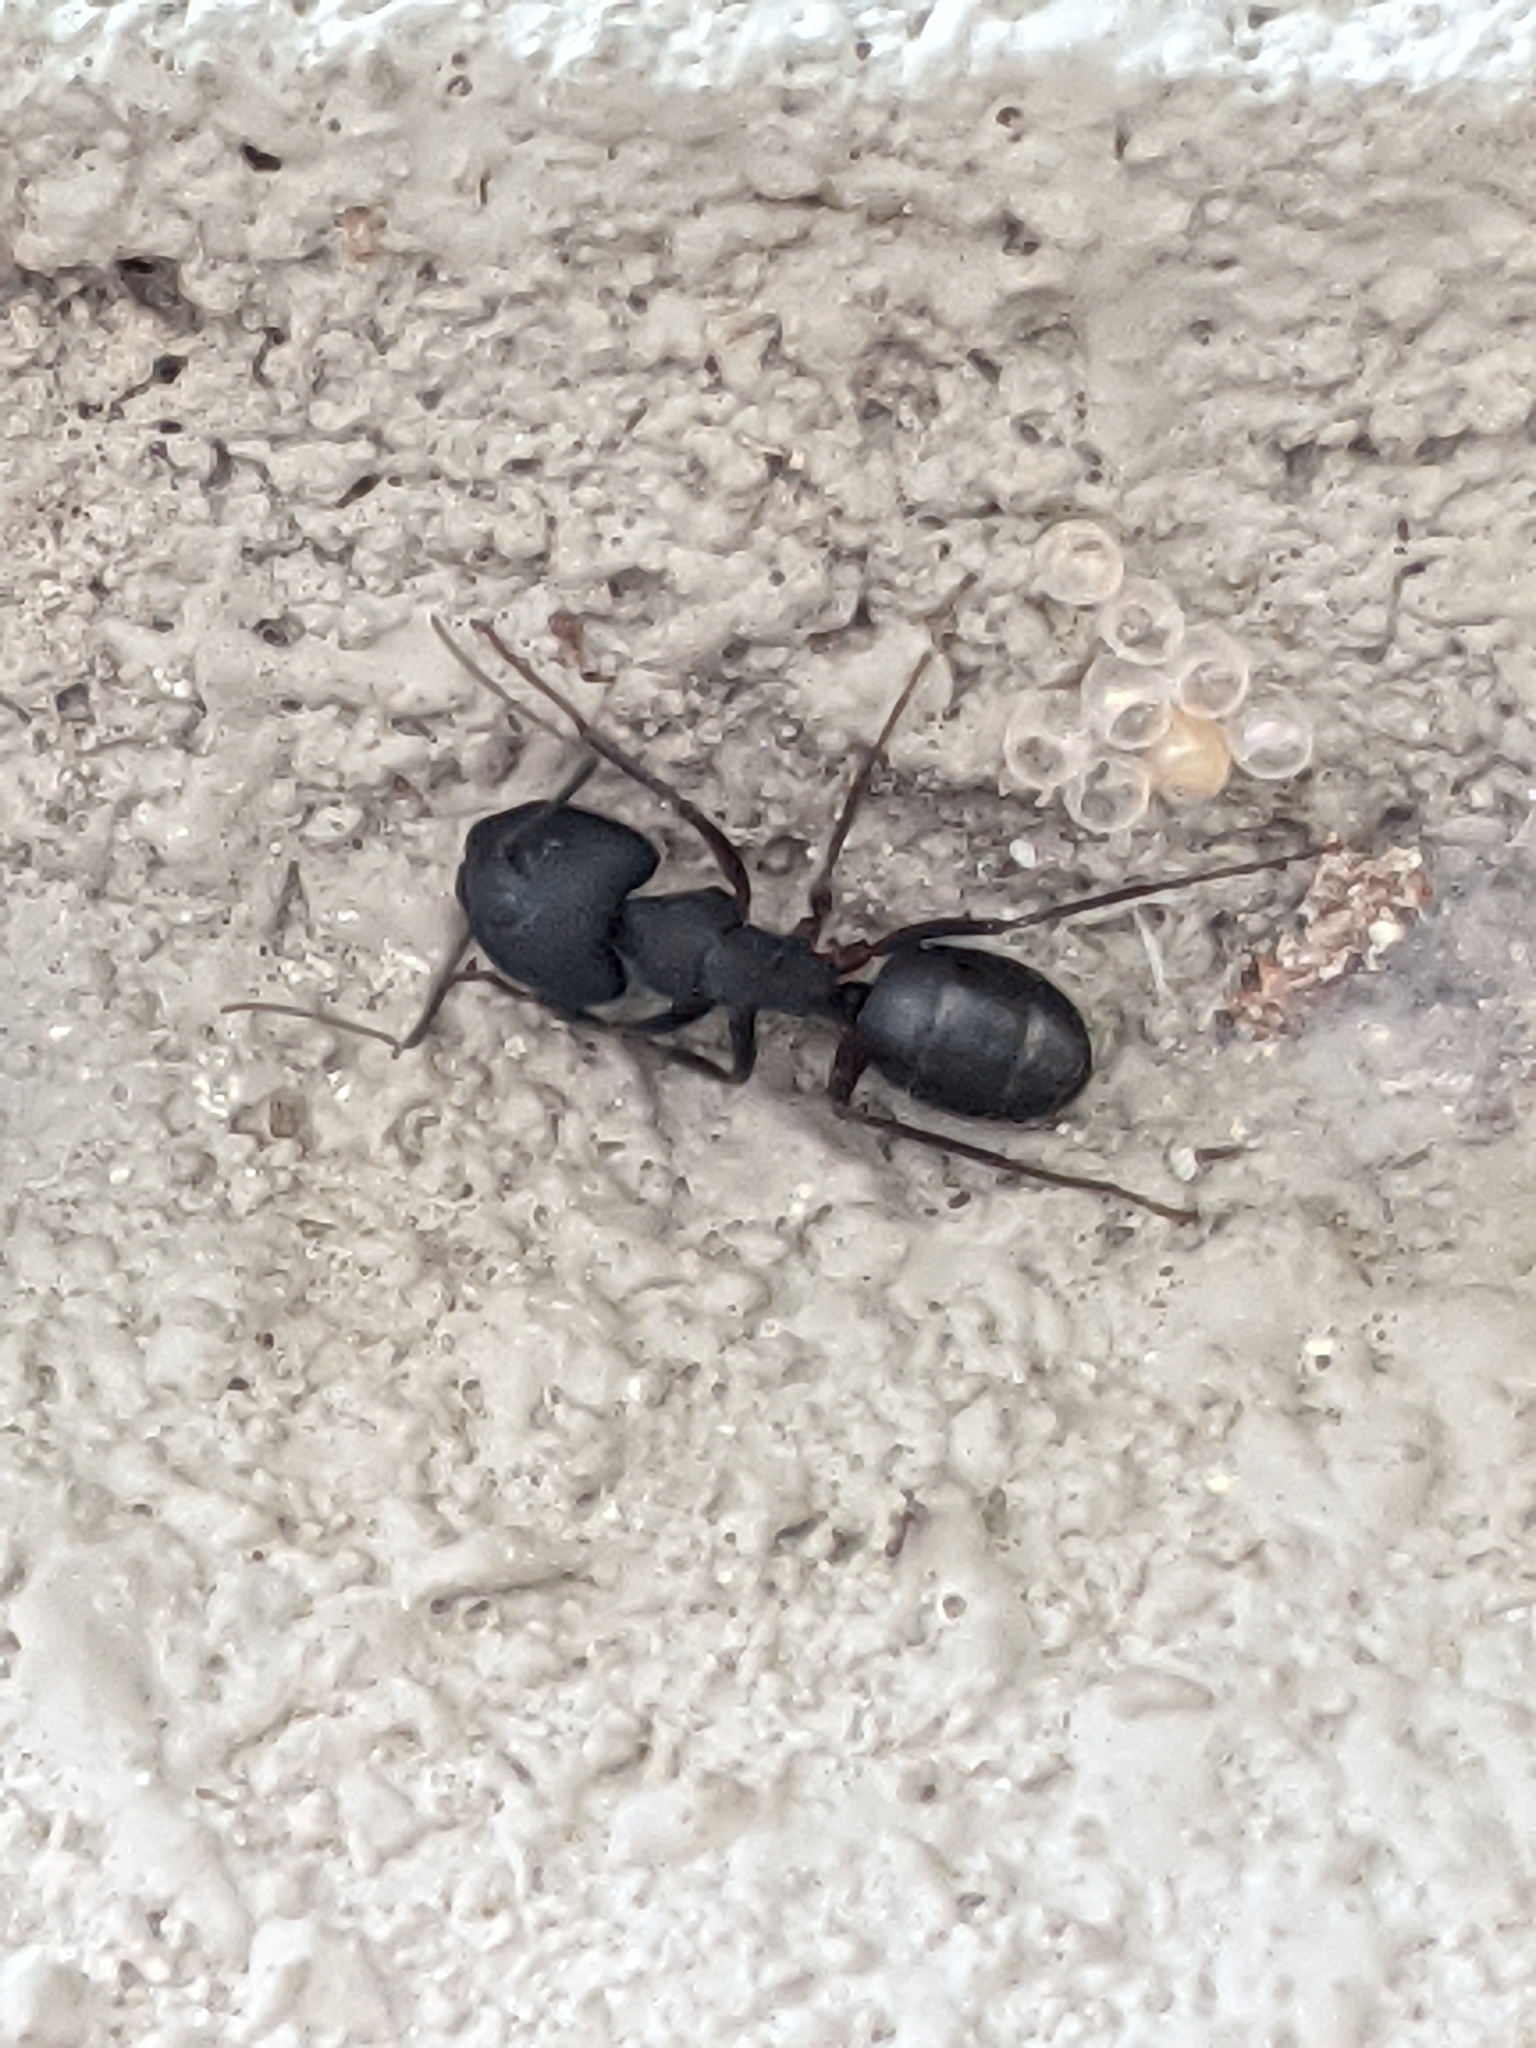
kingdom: Animalia
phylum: Arthropoda
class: Insecta
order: Hymenoptera
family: Formicidae
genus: Camponotus
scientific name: Camponotus compressus
